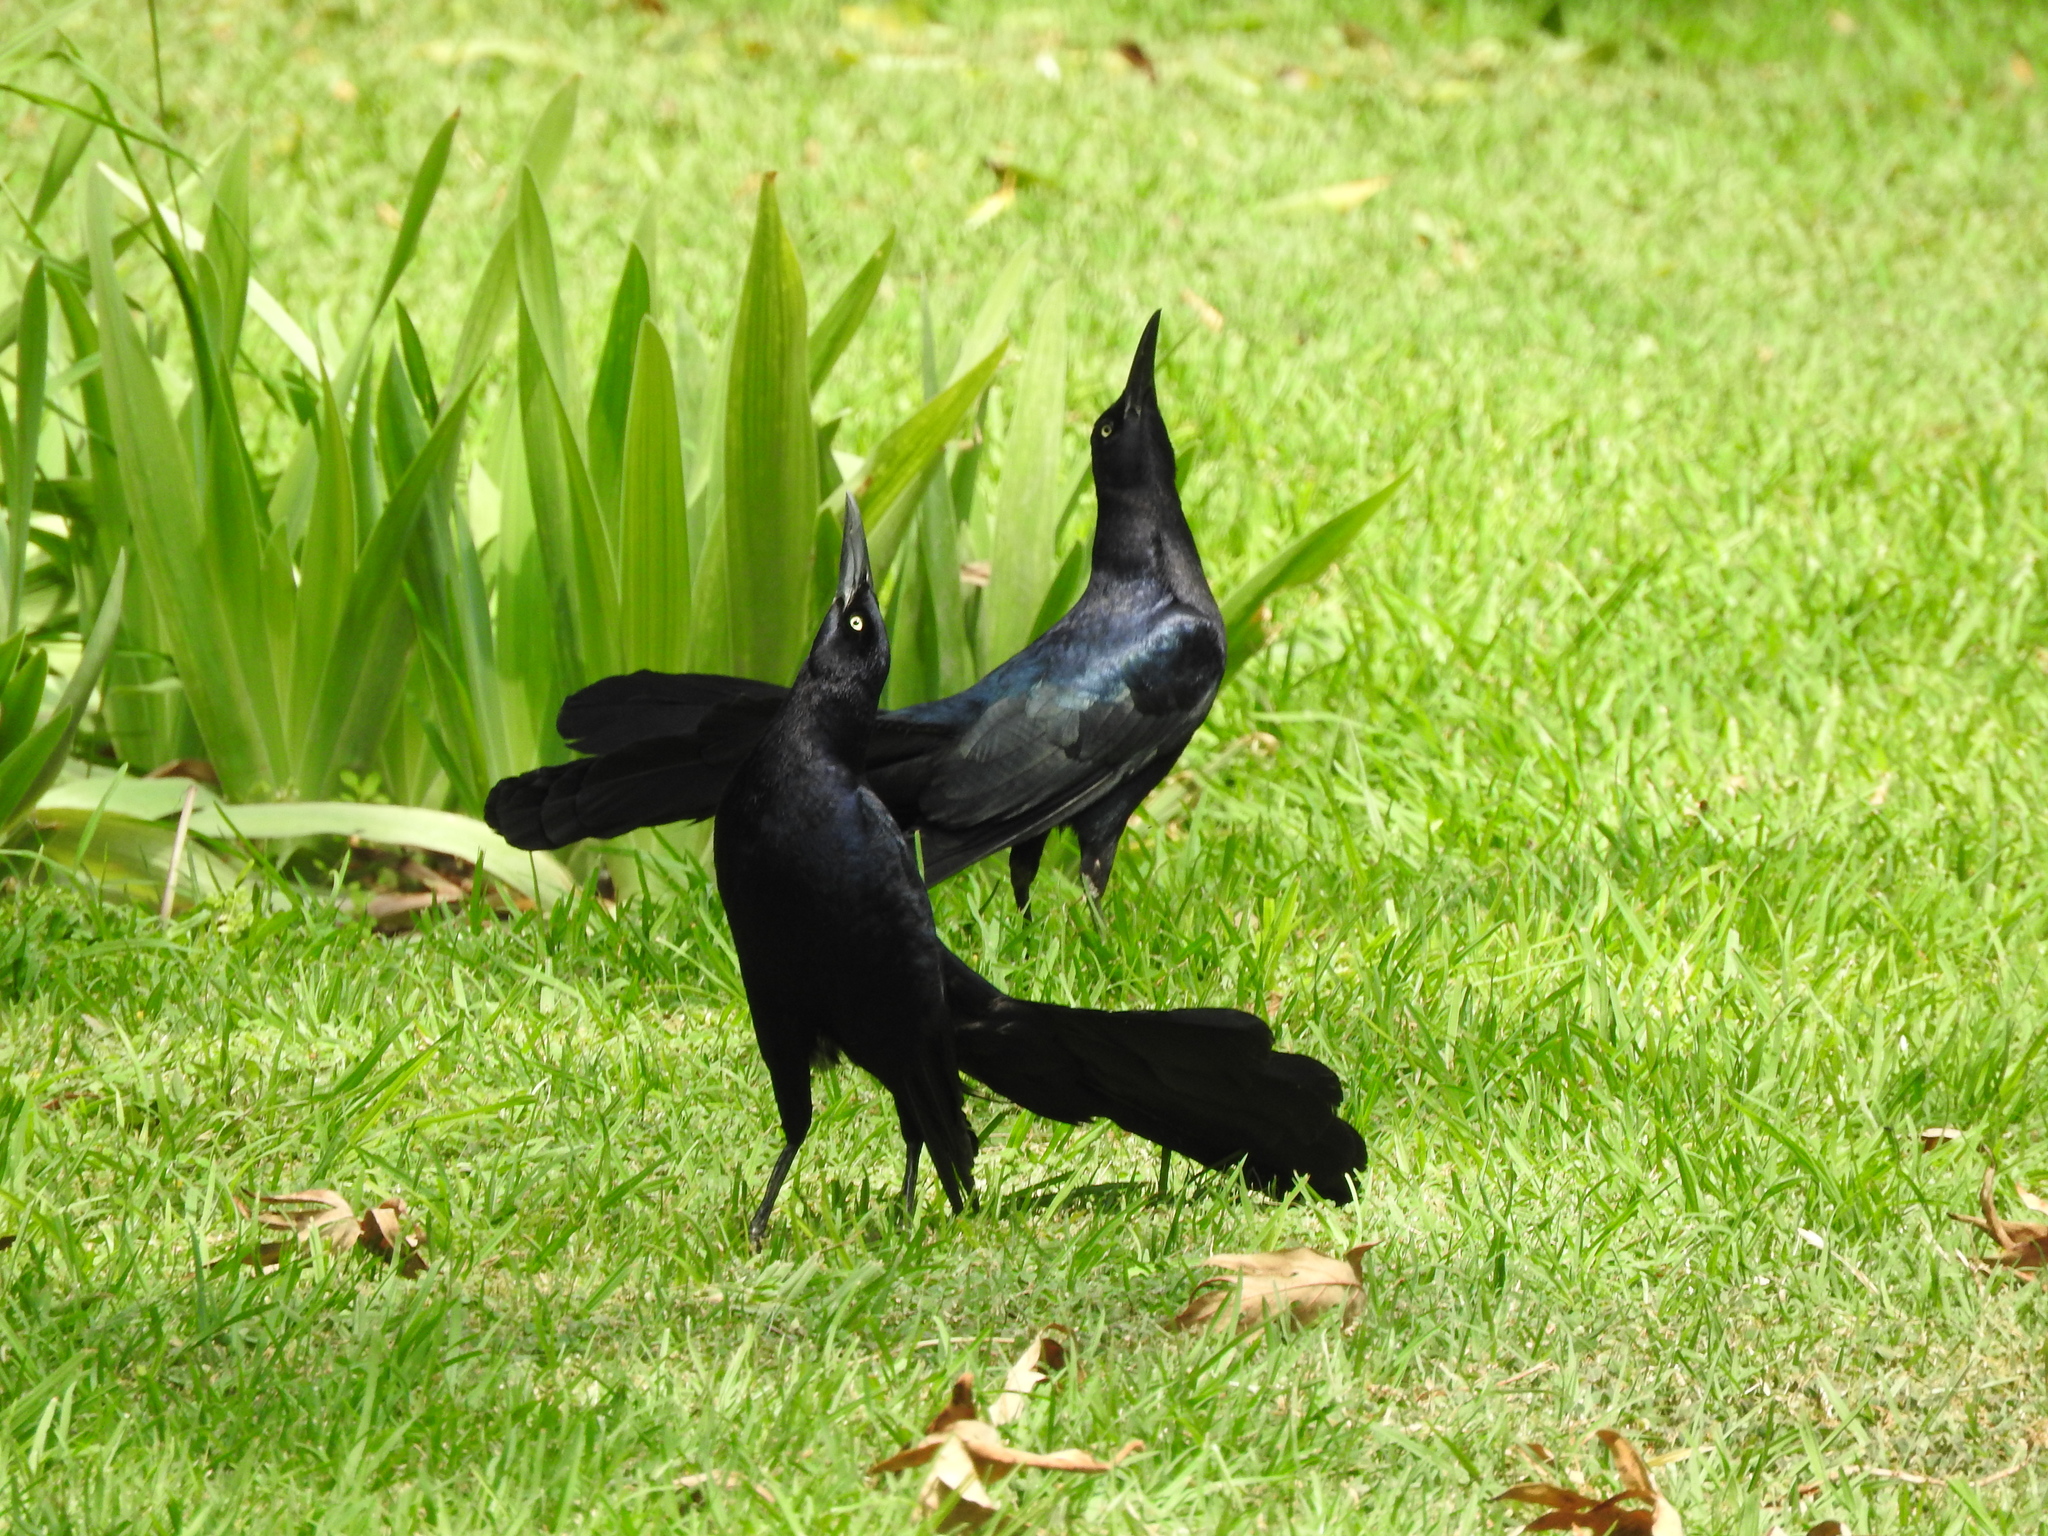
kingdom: Animalia
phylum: Chordata
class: Aves
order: Passeriformes
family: Icteridae
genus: Quiscalus
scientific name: Quiscalus mexicanus
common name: Great-tailed grackle
